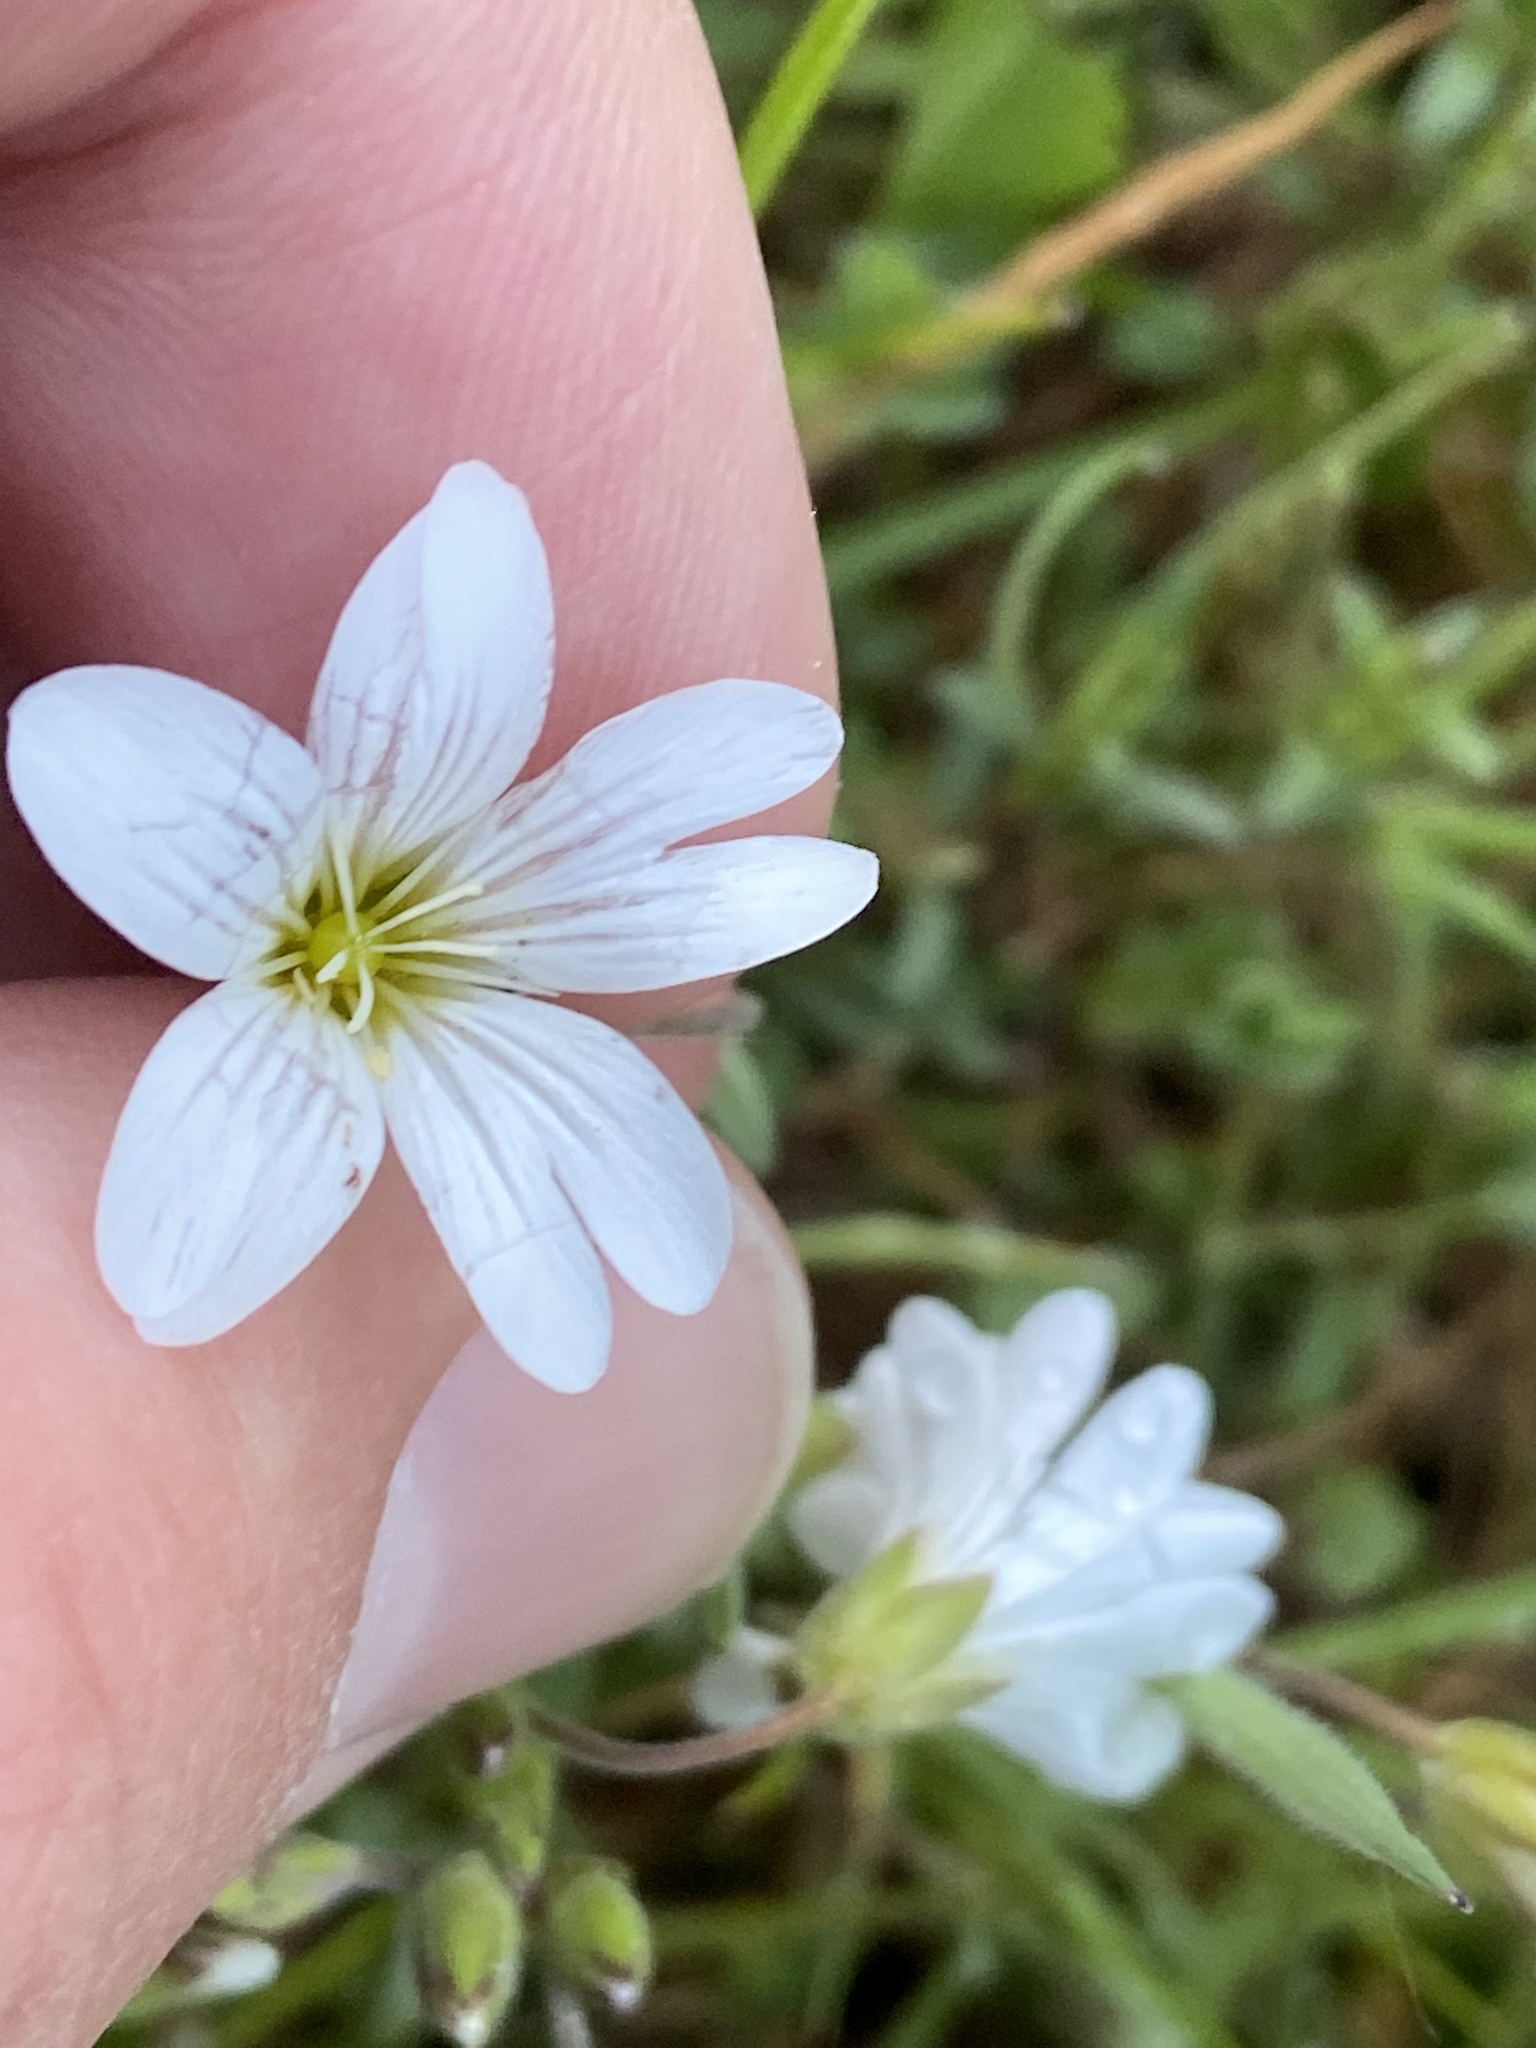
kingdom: Plantae
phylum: Tracheophyta
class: Magnoliopsida
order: Caryophyllales
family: Caryophyllaceae
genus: Cerastium
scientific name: Cerastium arvense
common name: Field mouse-ear
